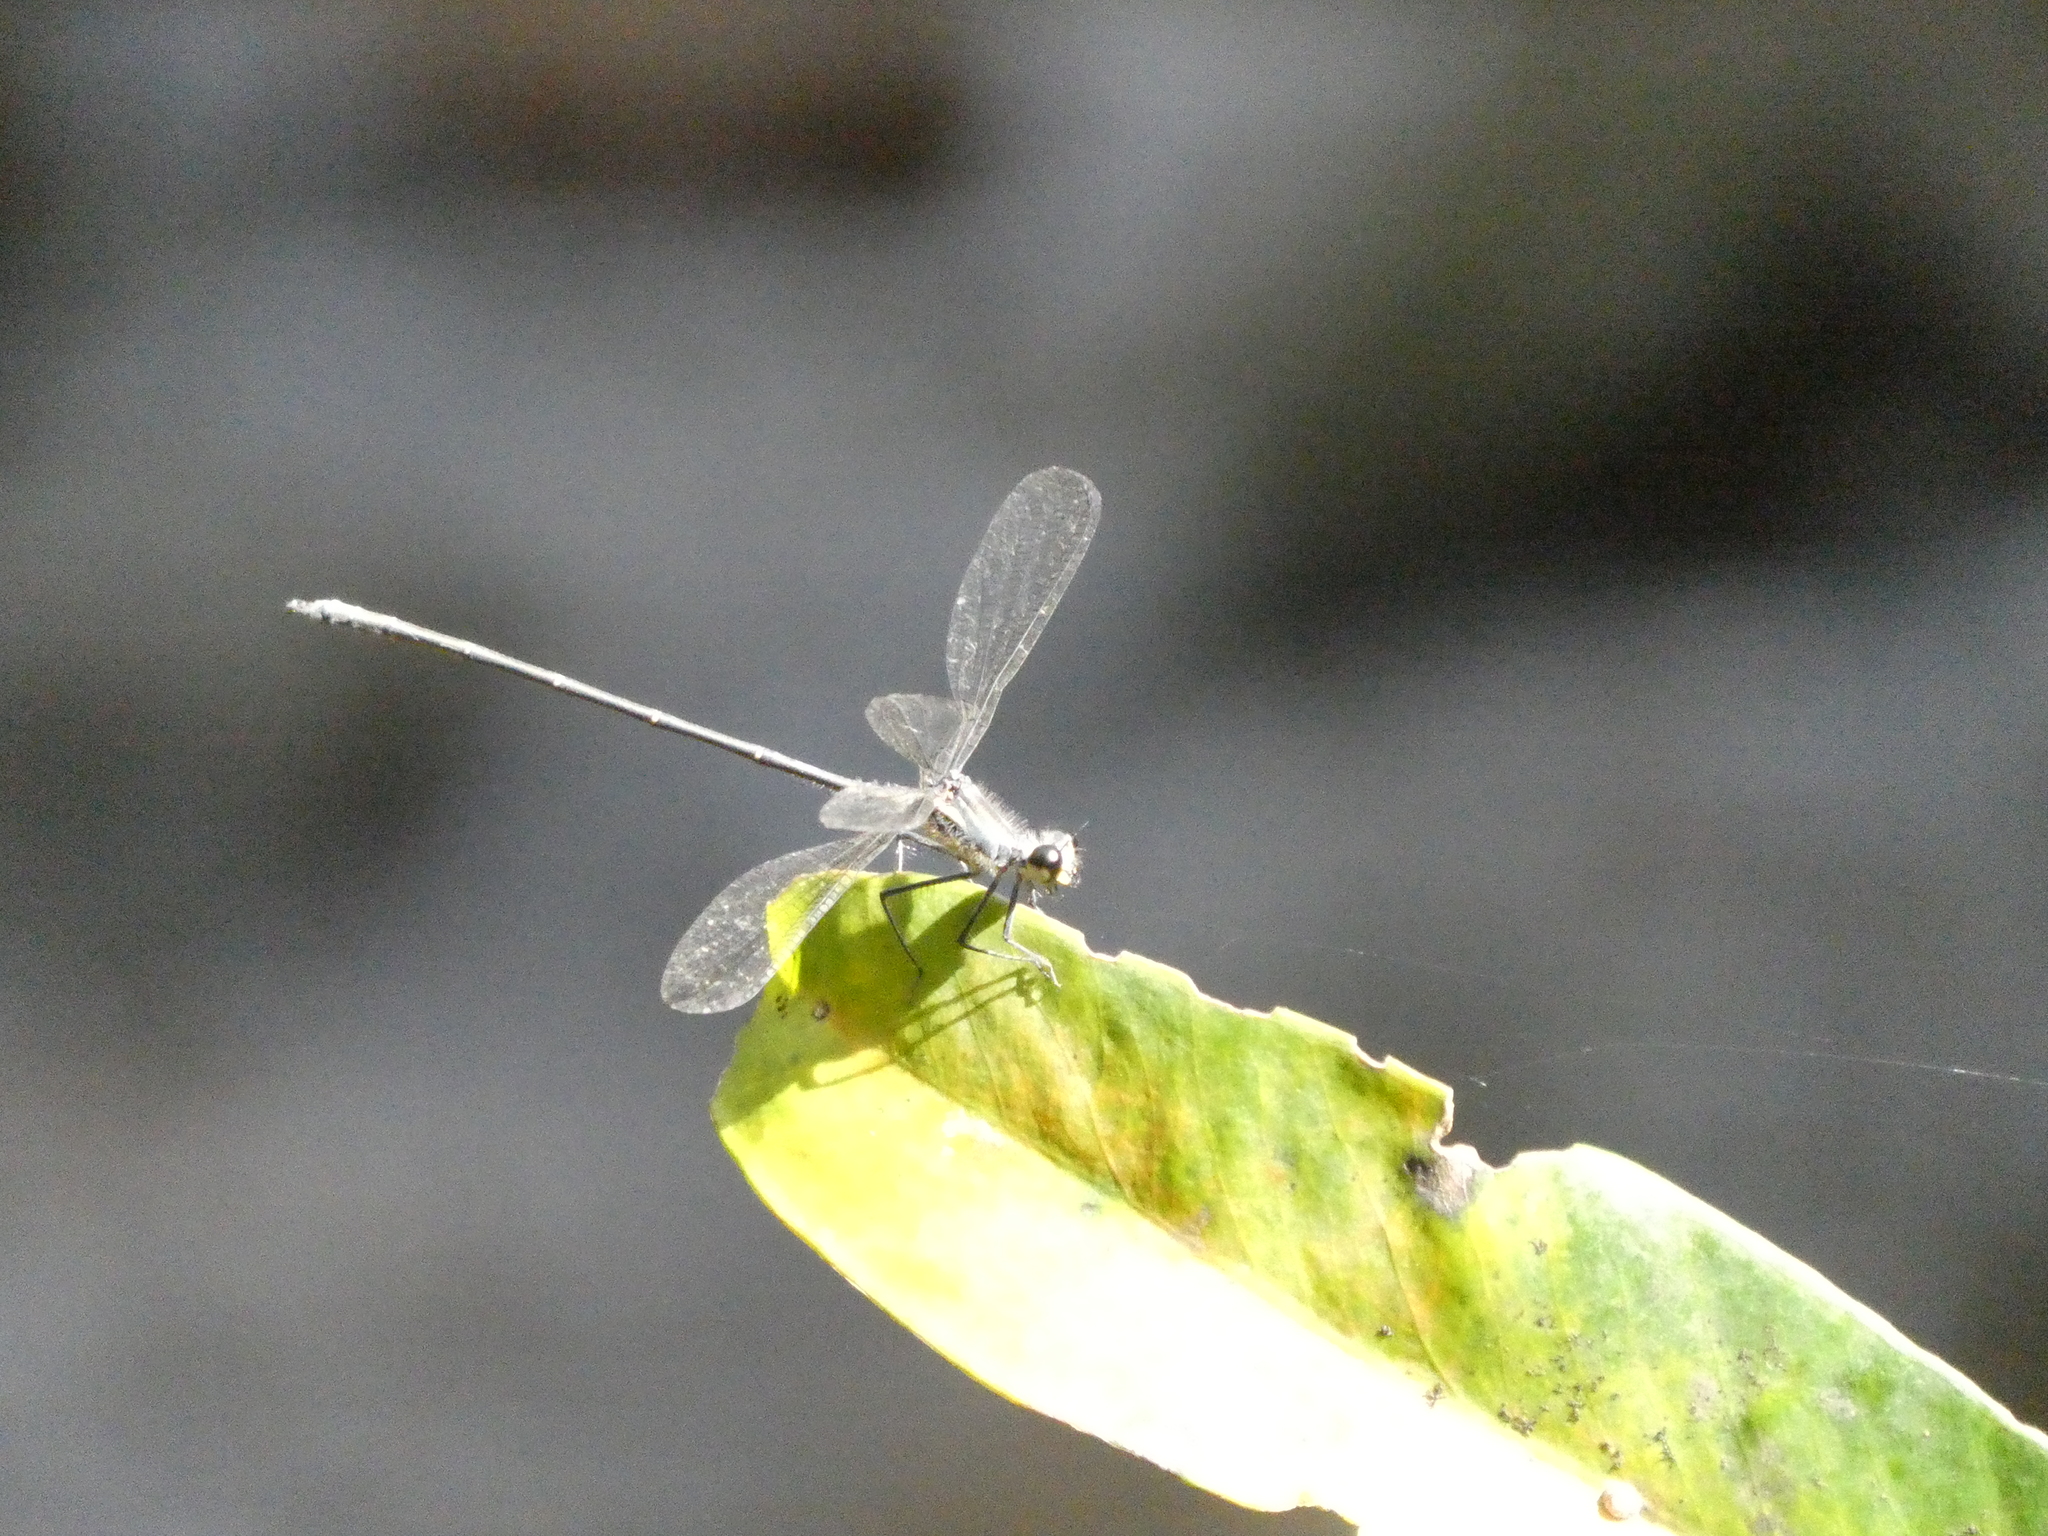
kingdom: Animalia
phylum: Arthropoda
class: Insecta
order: Odonata
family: Argiolestidae
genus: Austroargiolestes
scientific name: Austroargiolestes icteromelas
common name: Common flatwing
